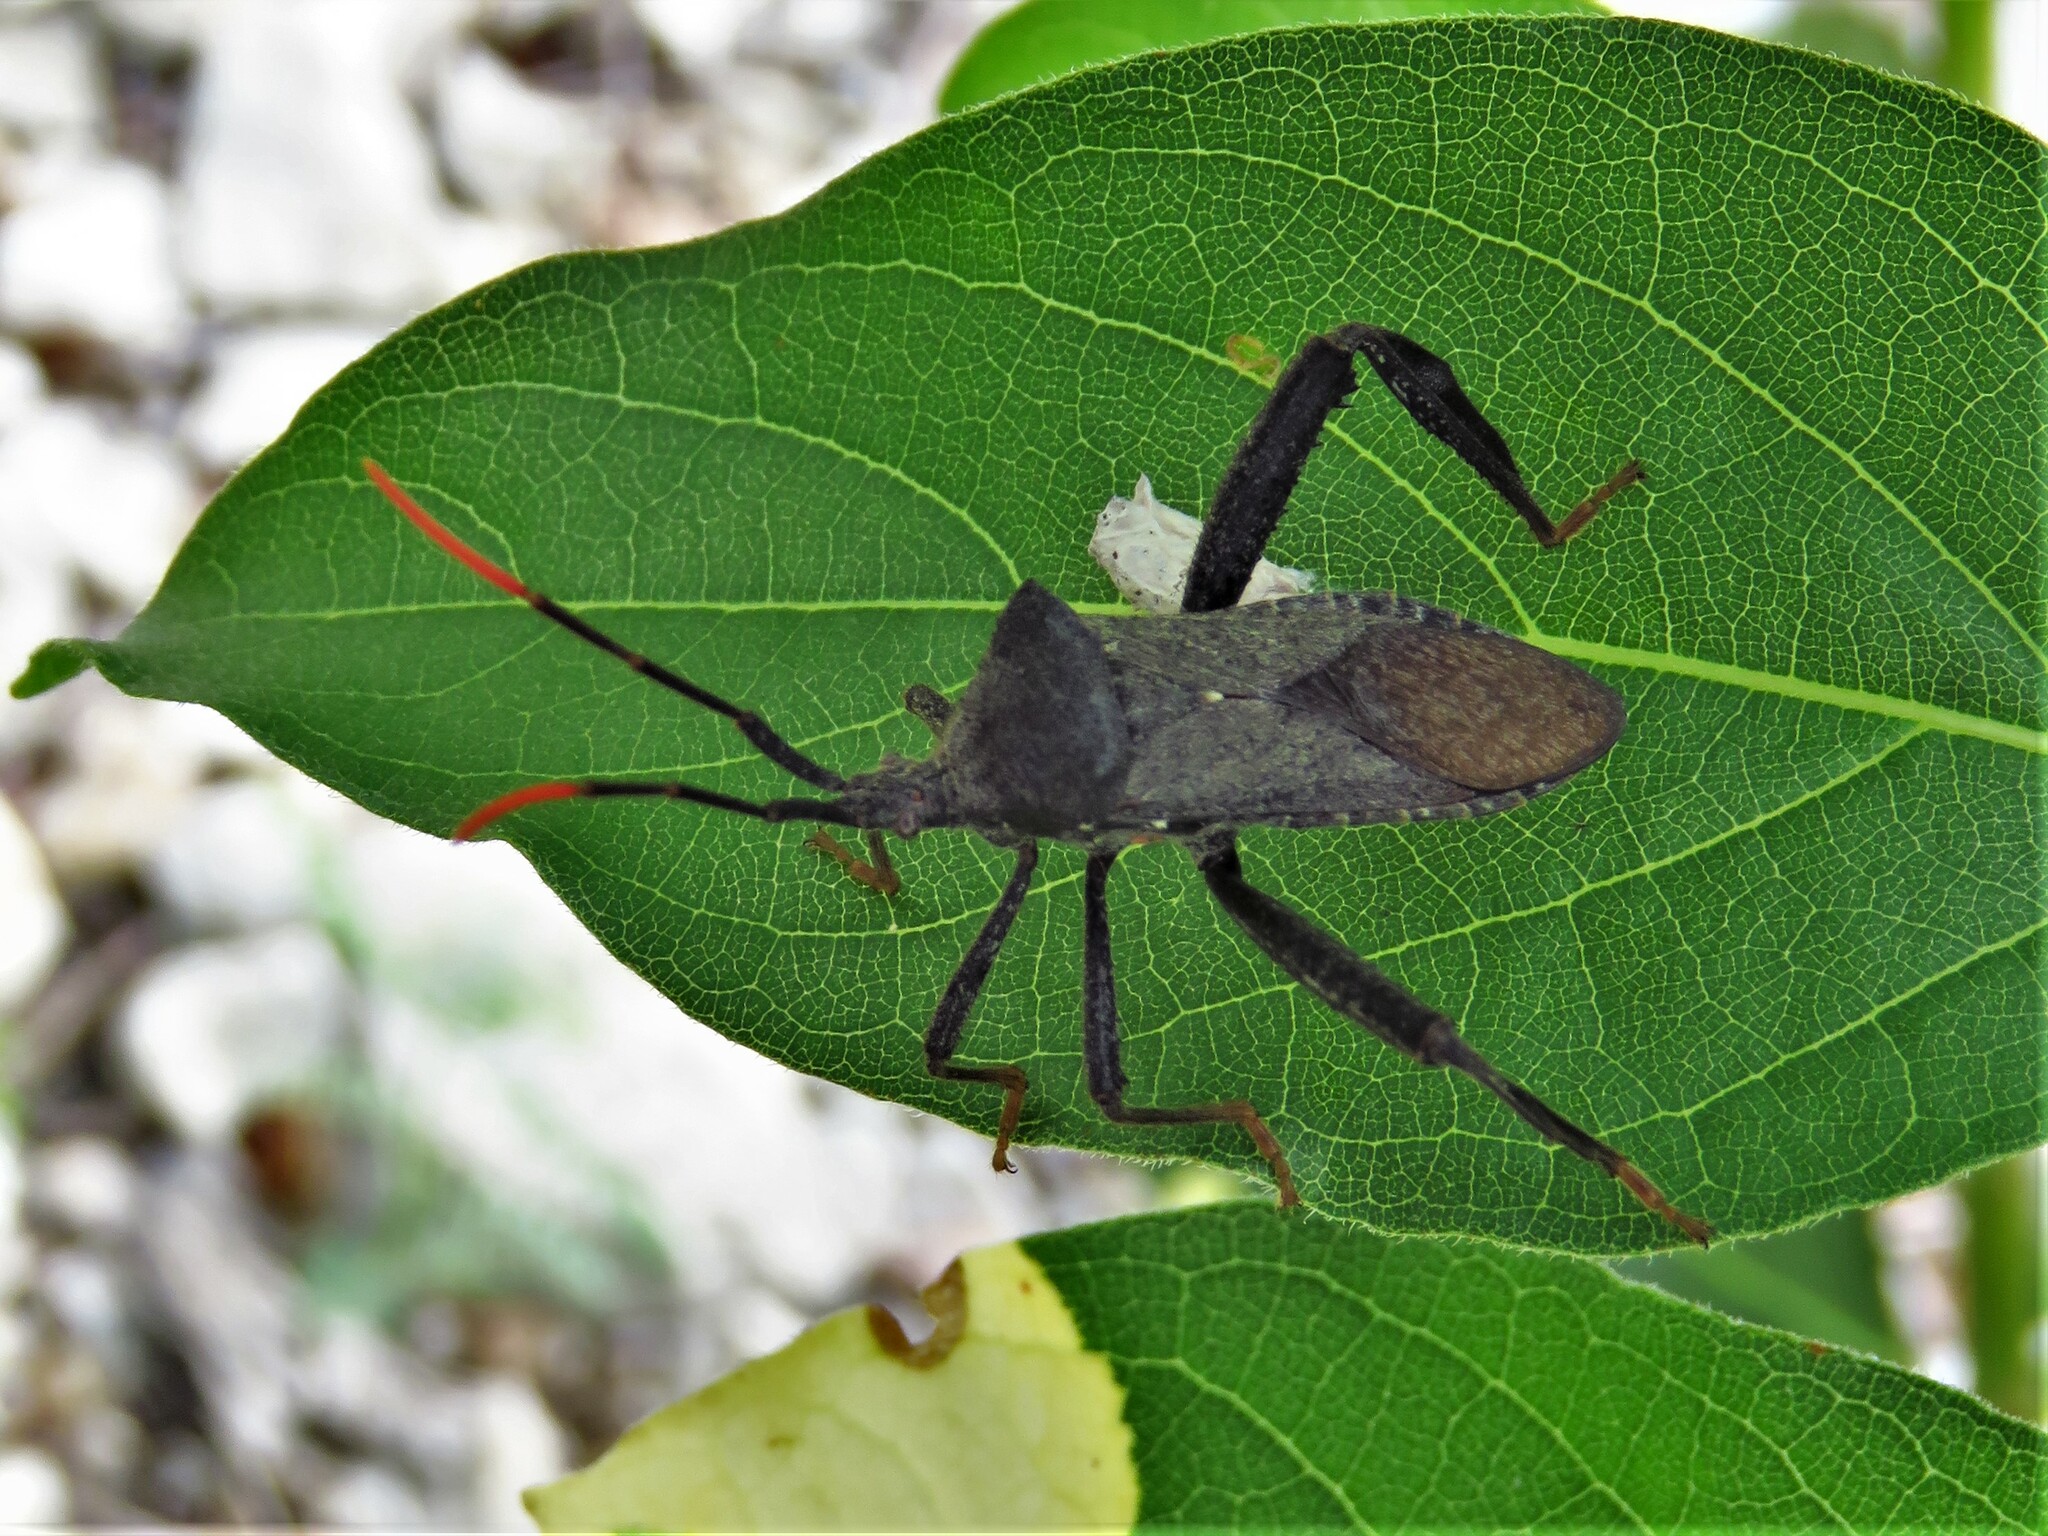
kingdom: Animalia
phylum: Arthropoda
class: Insecta
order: Hemiptera
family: Coreidae
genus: Acanthocephala
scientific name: Acanthocephala terminalis
